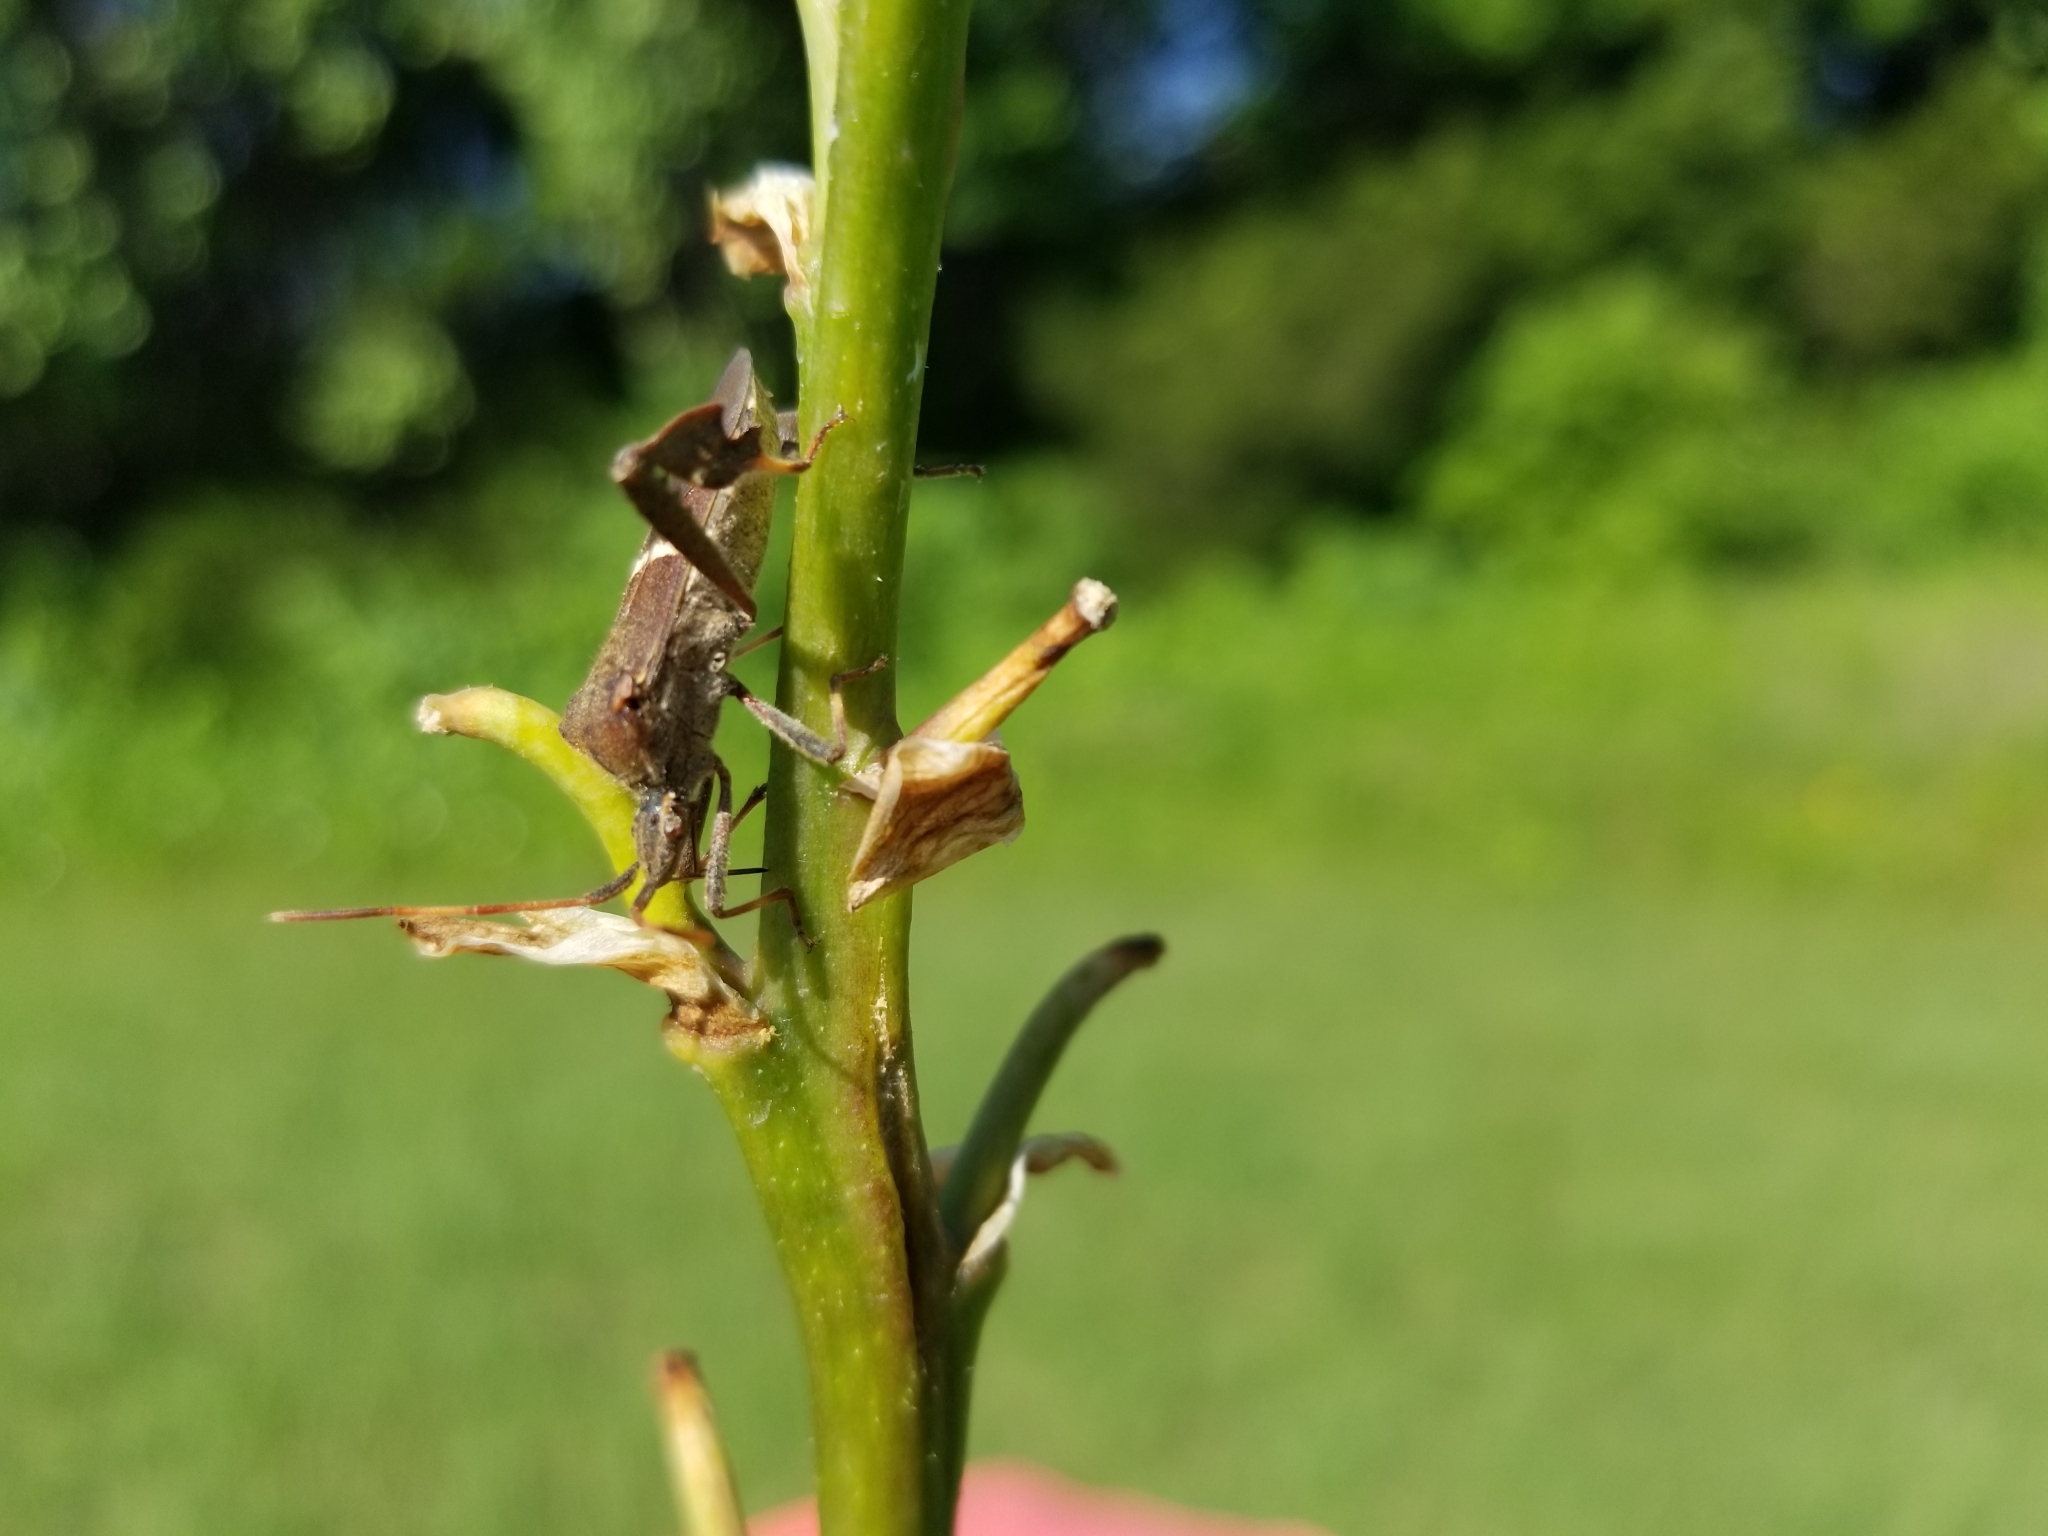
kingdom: Animalia
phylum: Arthropoda
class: Insecta
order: Hemiptera
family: Coreidae
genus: Leptoglossus
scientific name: Leptoglossus phyllopus
